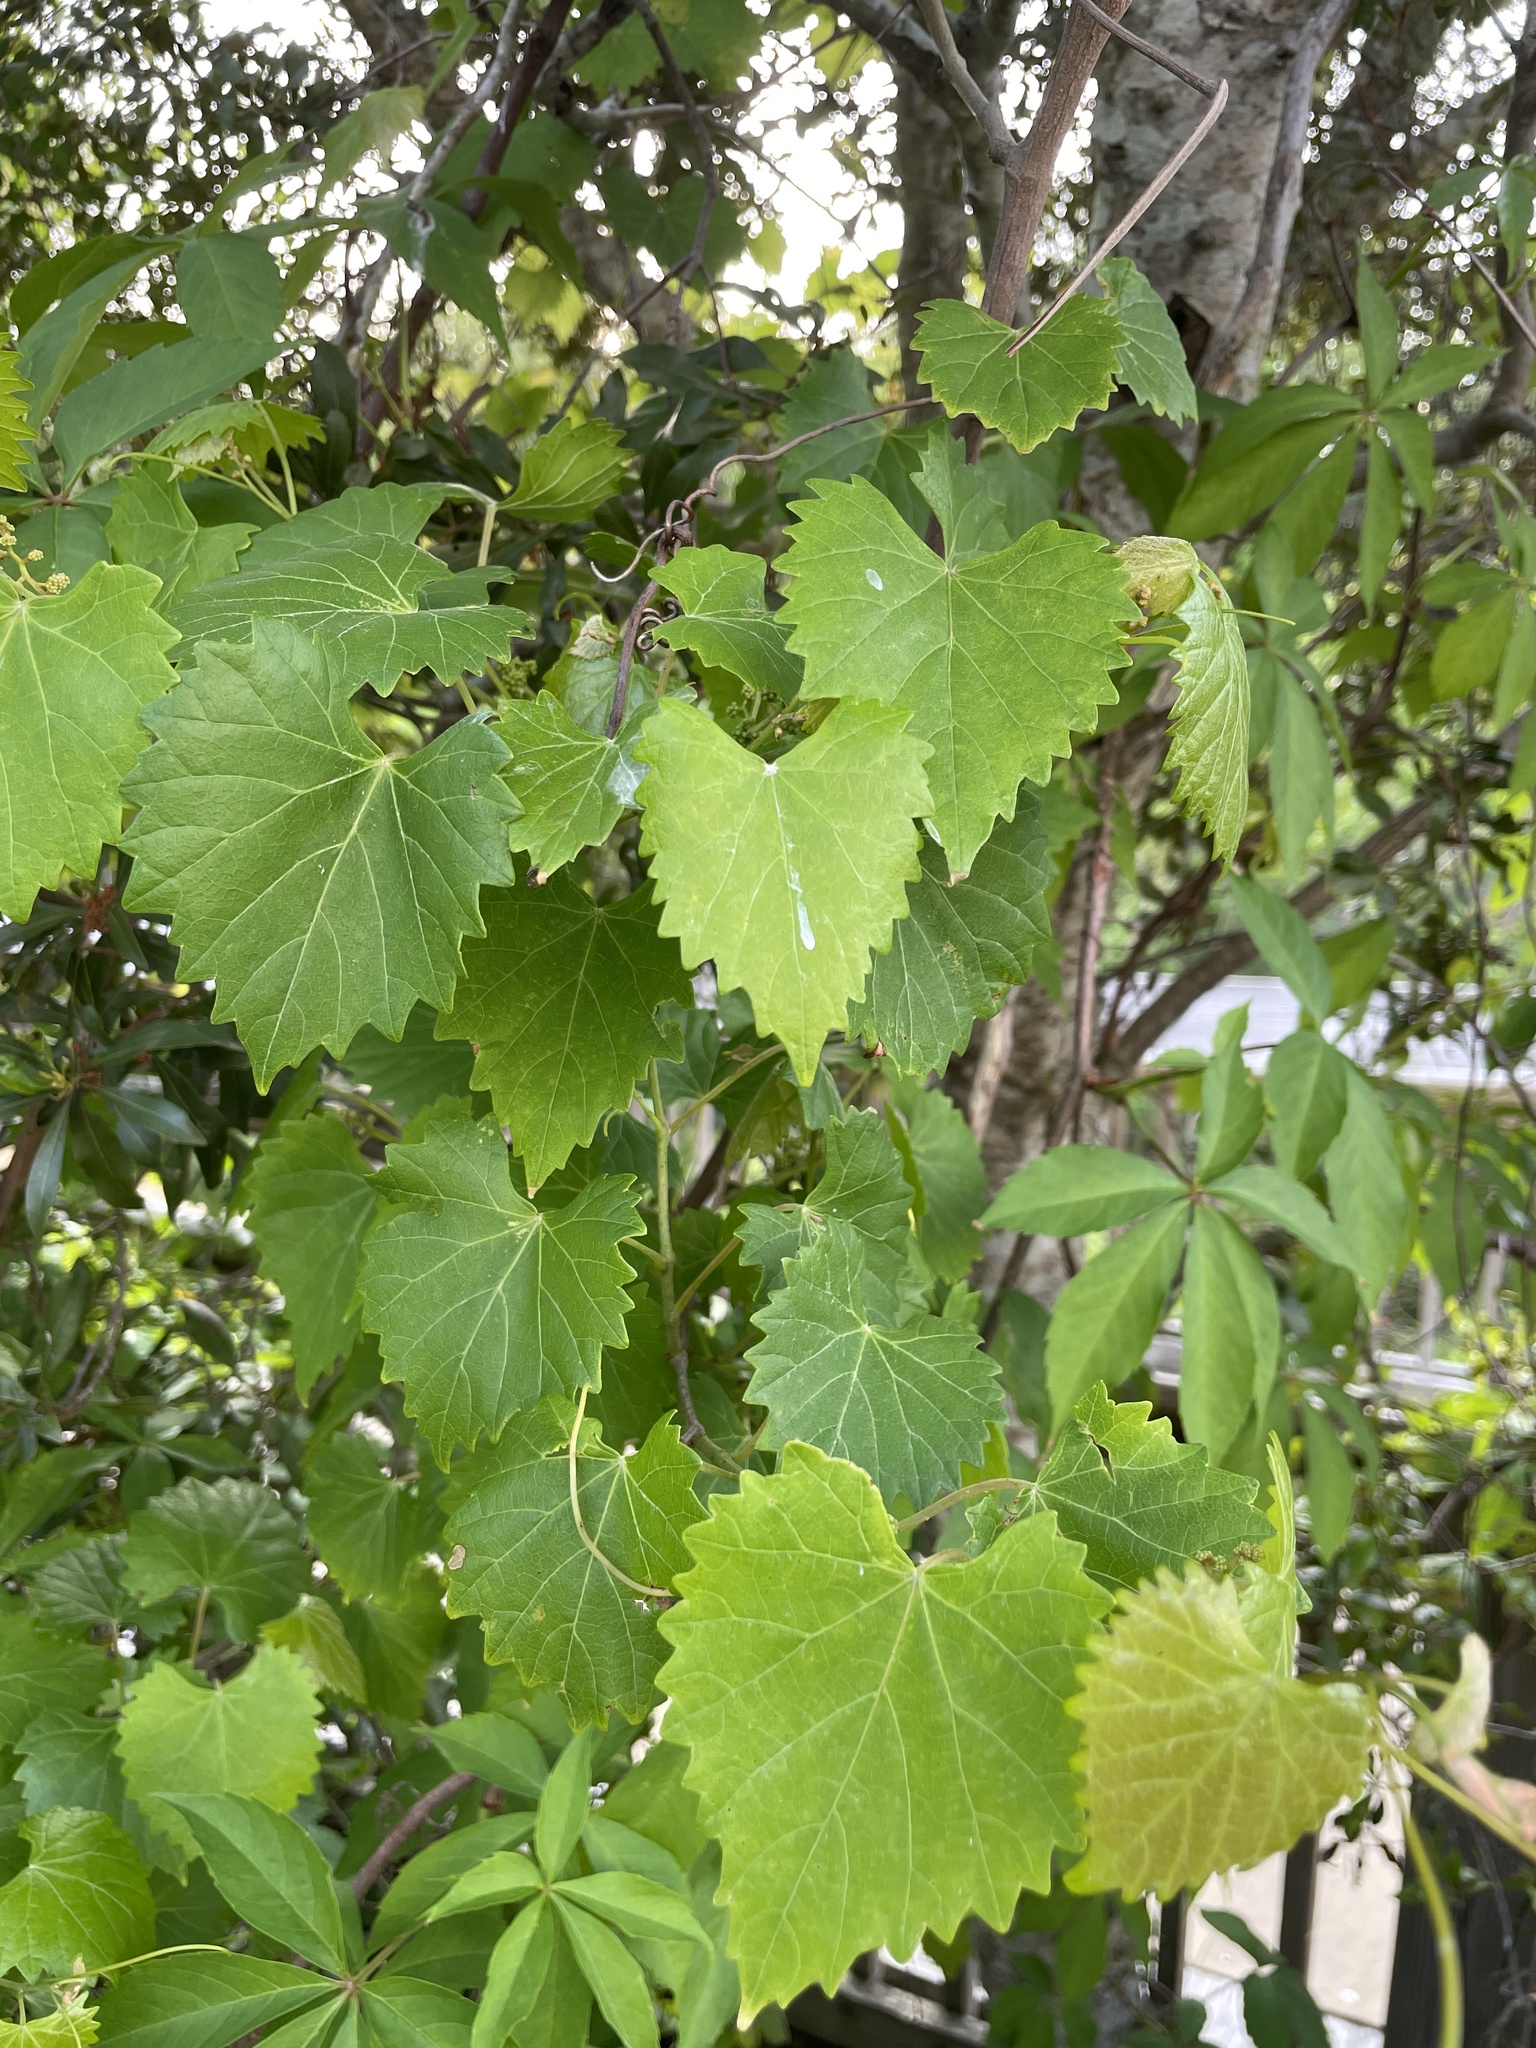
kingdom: Plantae
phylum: Tracheophyta
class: Magnoliopsida
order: Vitales
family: Vitaceae
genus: Vitis
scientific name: Vitis rotundifolia
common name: Muscadine grape
